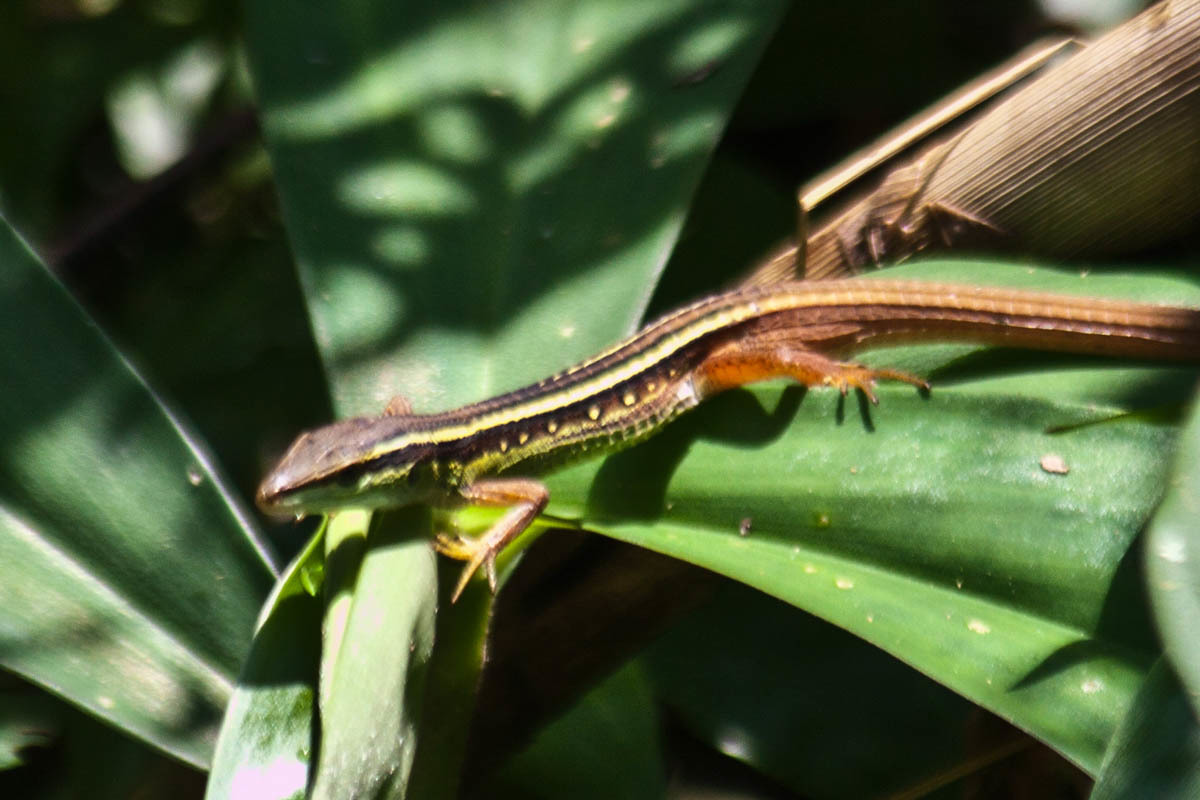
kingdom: Animalia
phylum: Chordata
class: Squamata
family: Lacertidae
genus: Takydromus
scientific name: Takydromus sexlineatus
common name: Asian grass lizard
